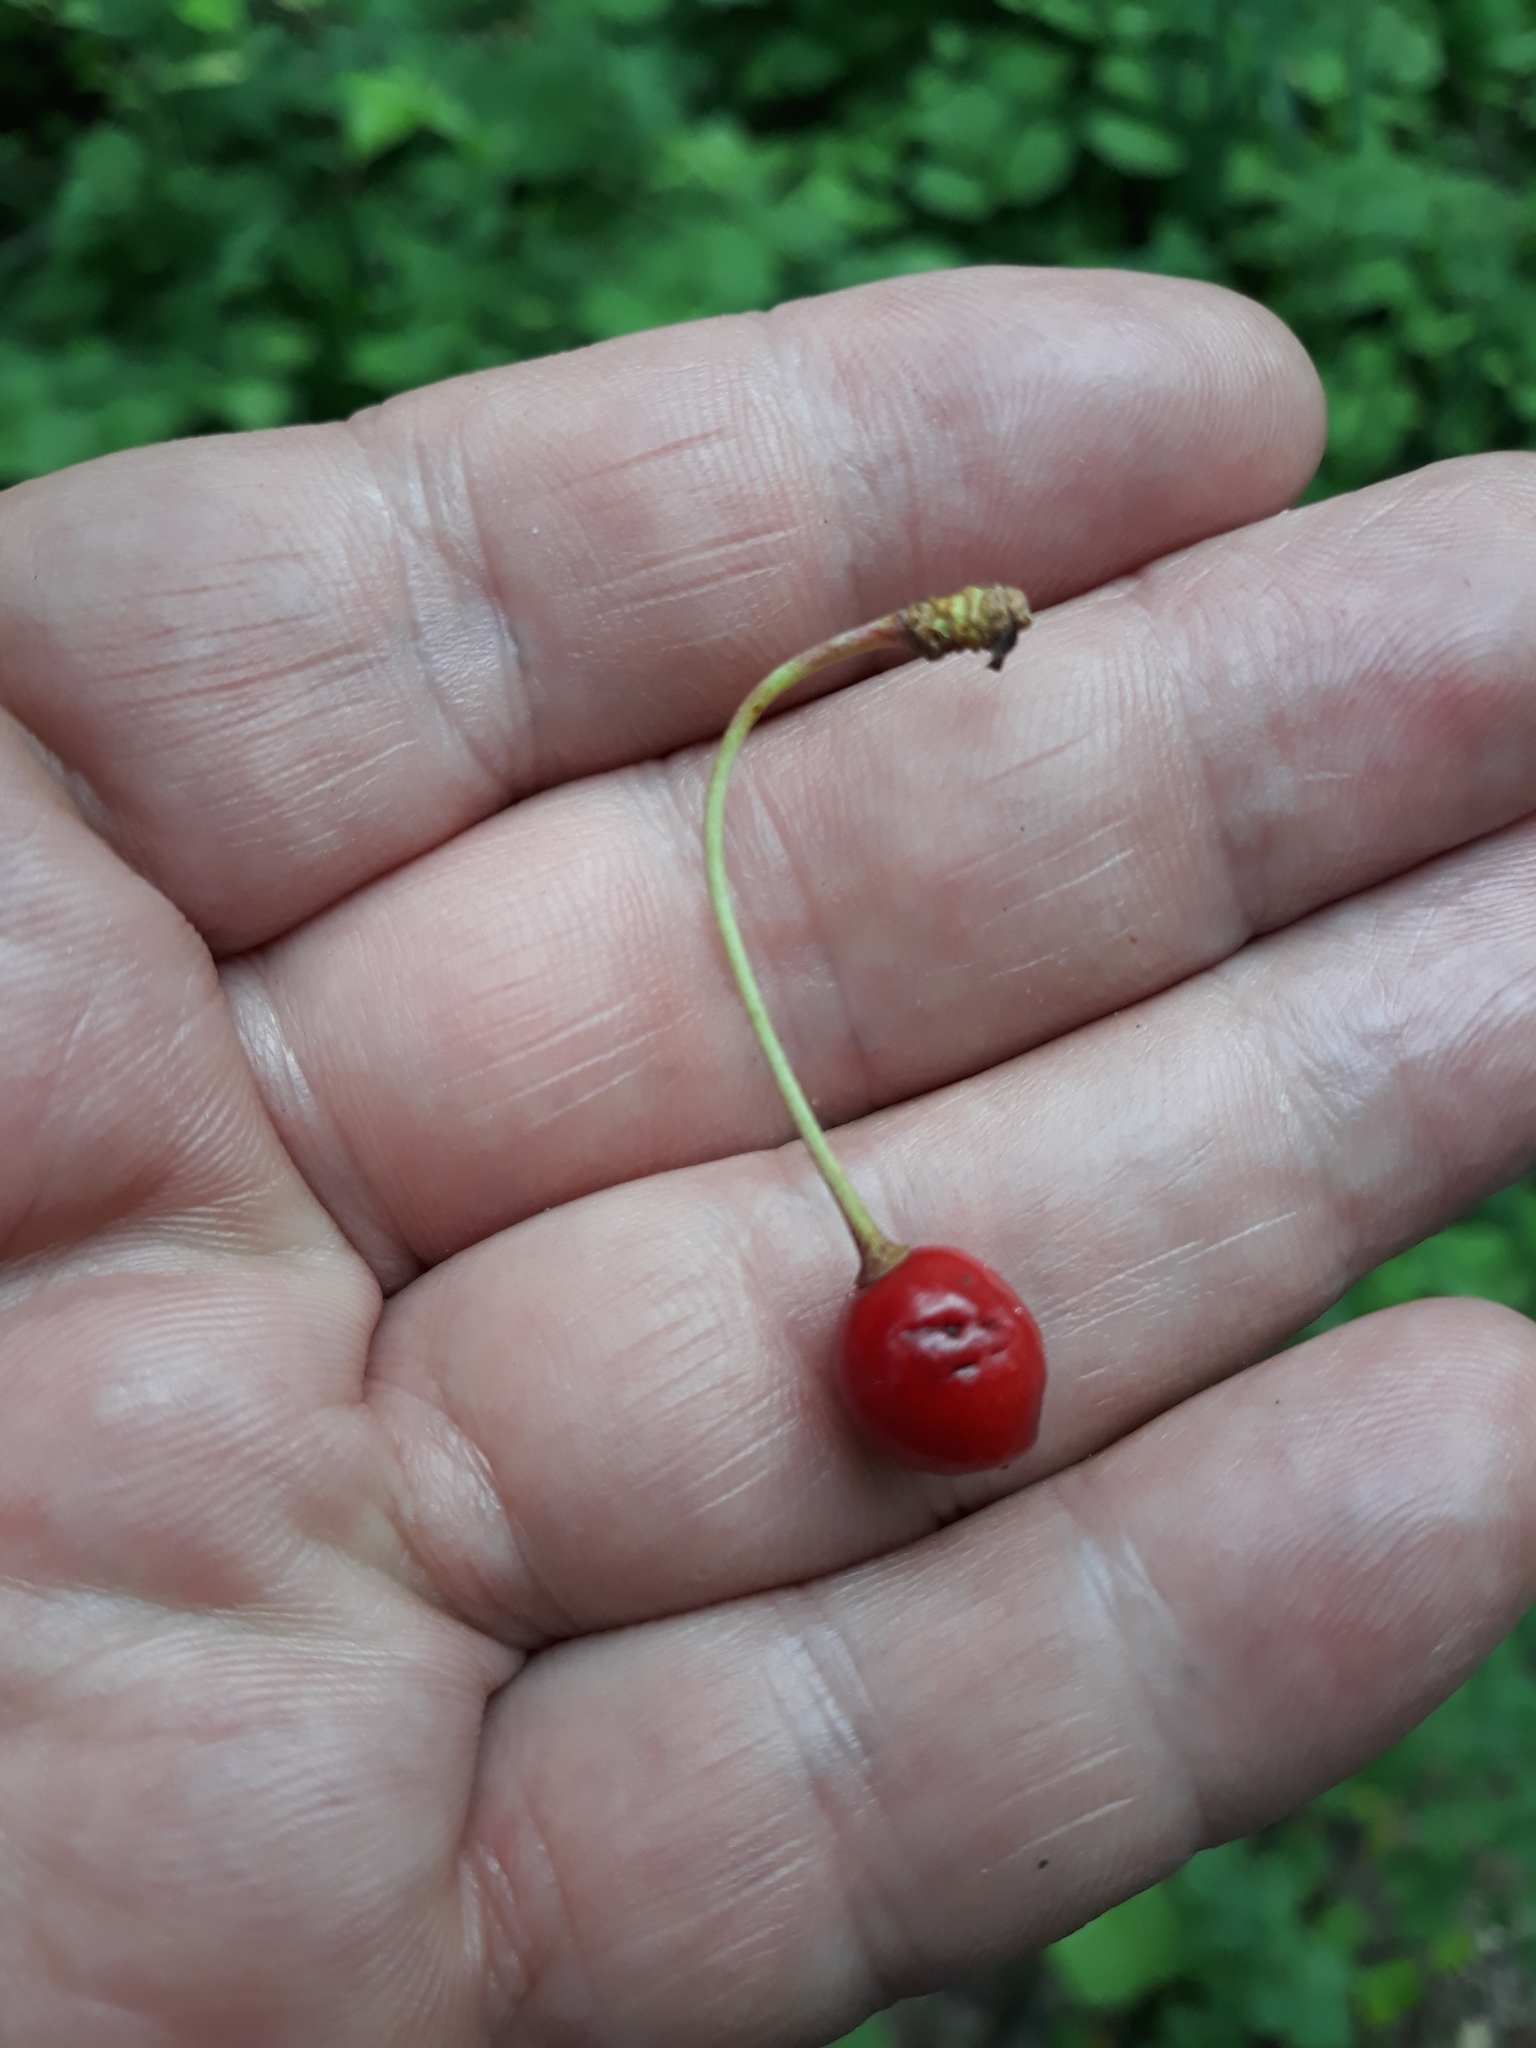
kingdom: Plantae
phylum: Tracheophyta
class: Magnoliopsida
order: Rosales
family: Rosaceae
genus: Prunus
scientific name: Prunus avium
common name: Sweet cherry
